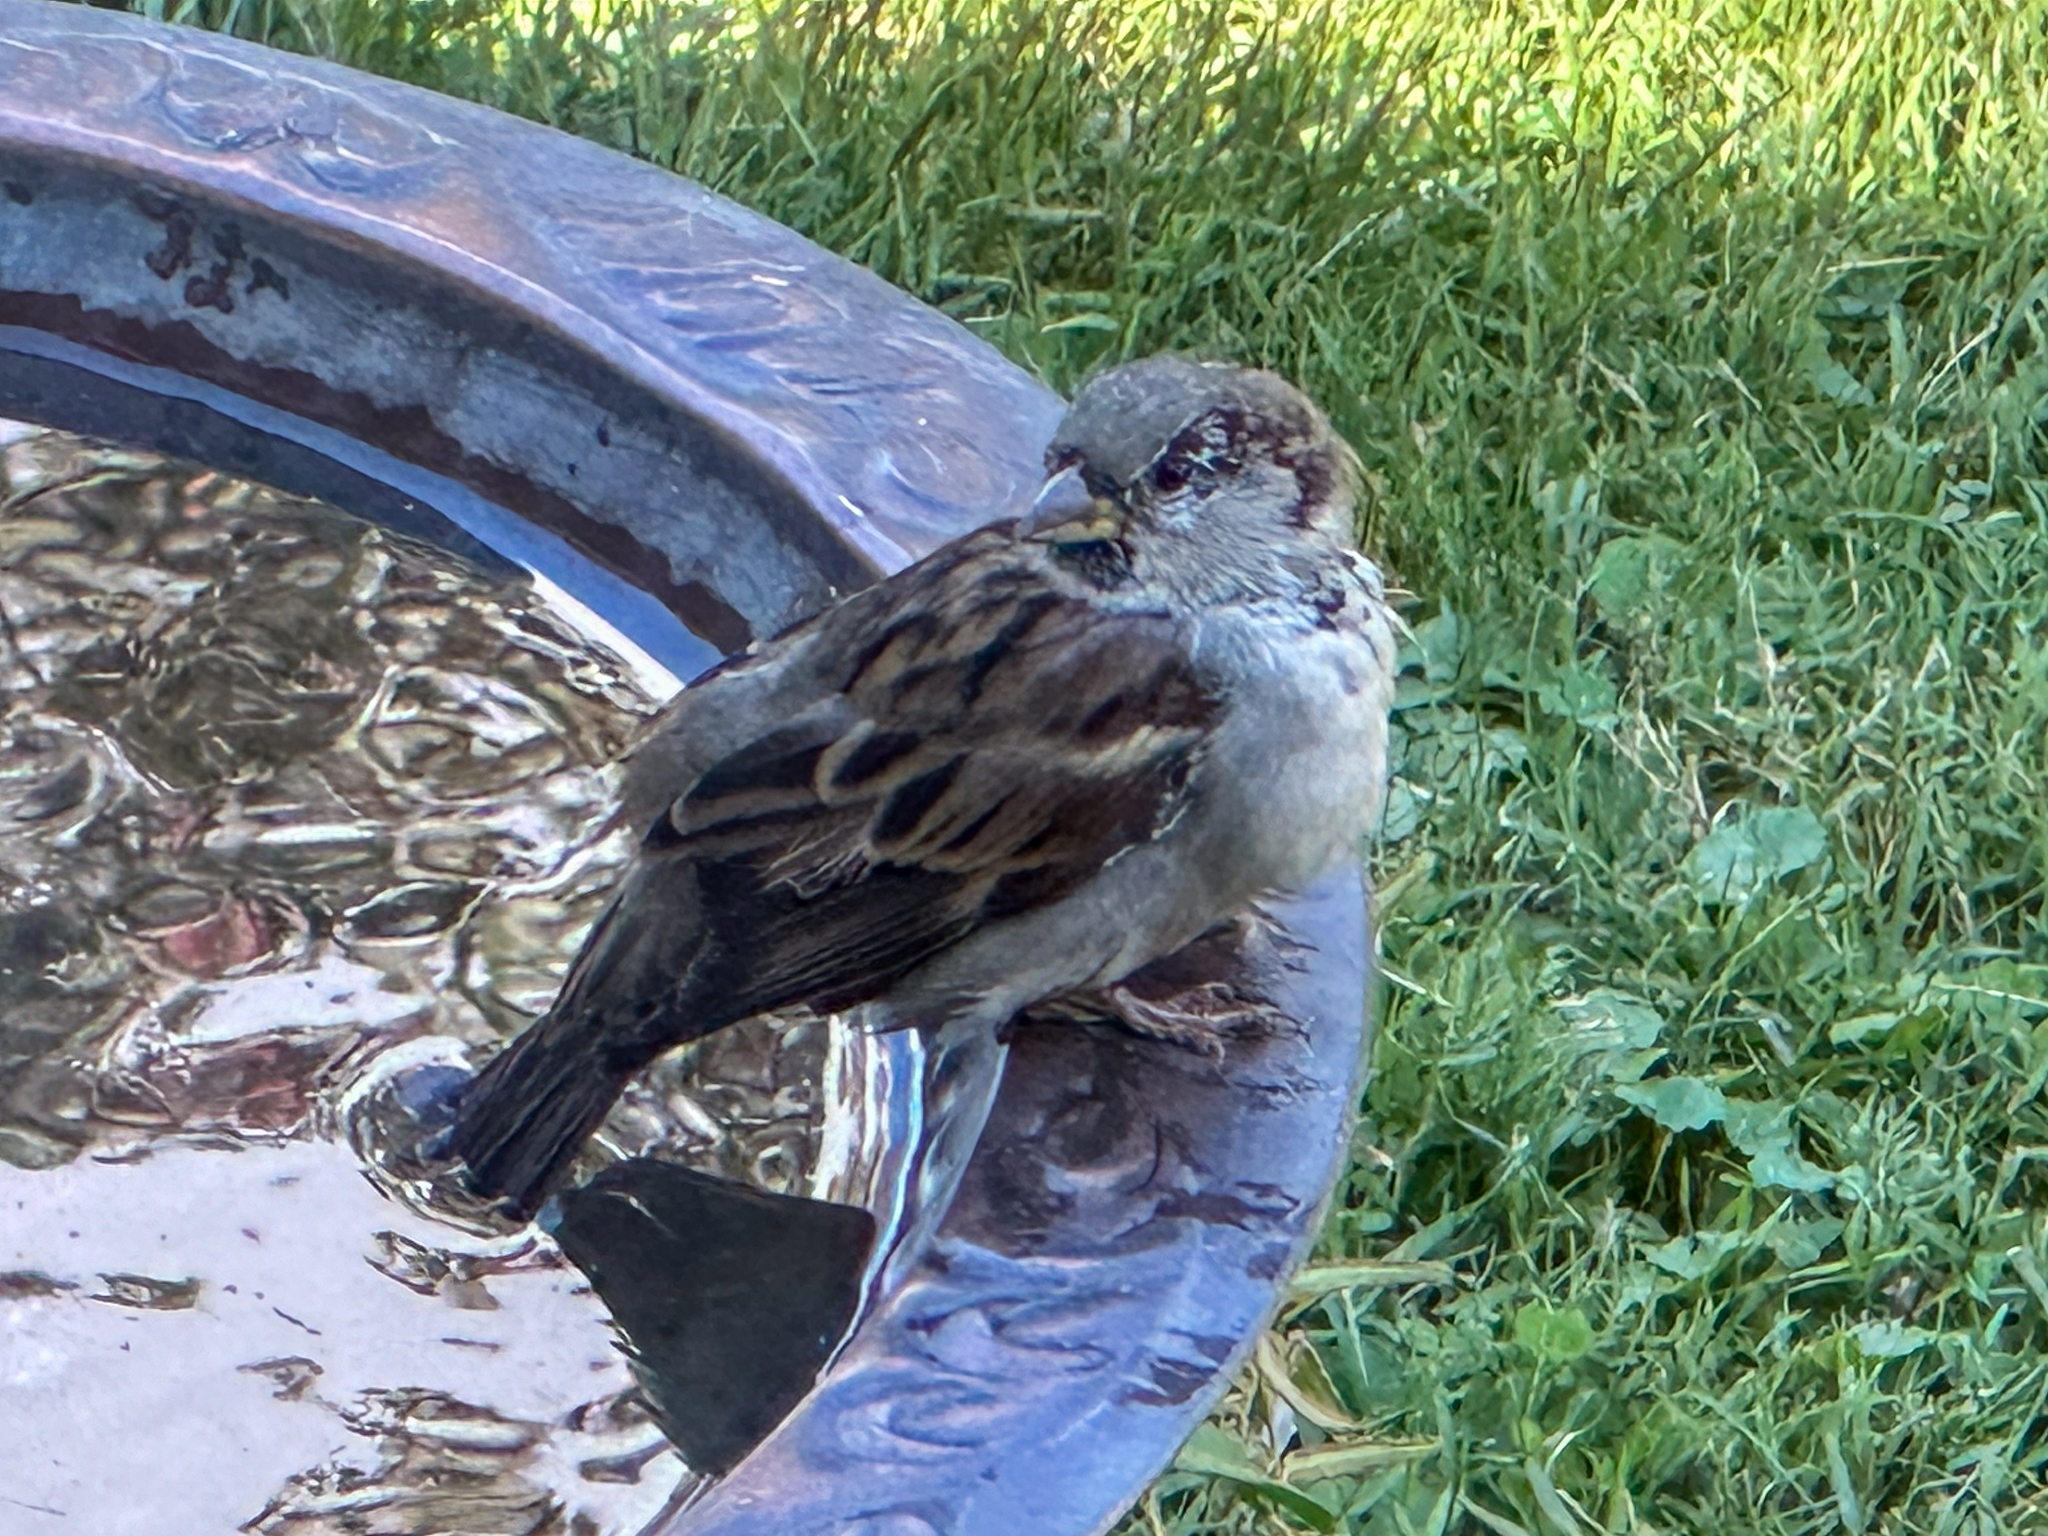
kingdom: Animalia
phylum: Chordata
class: Aves
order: Passeriformes
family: Passeridae
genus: Passer
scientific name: Passer domesticus
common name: House sparrow
